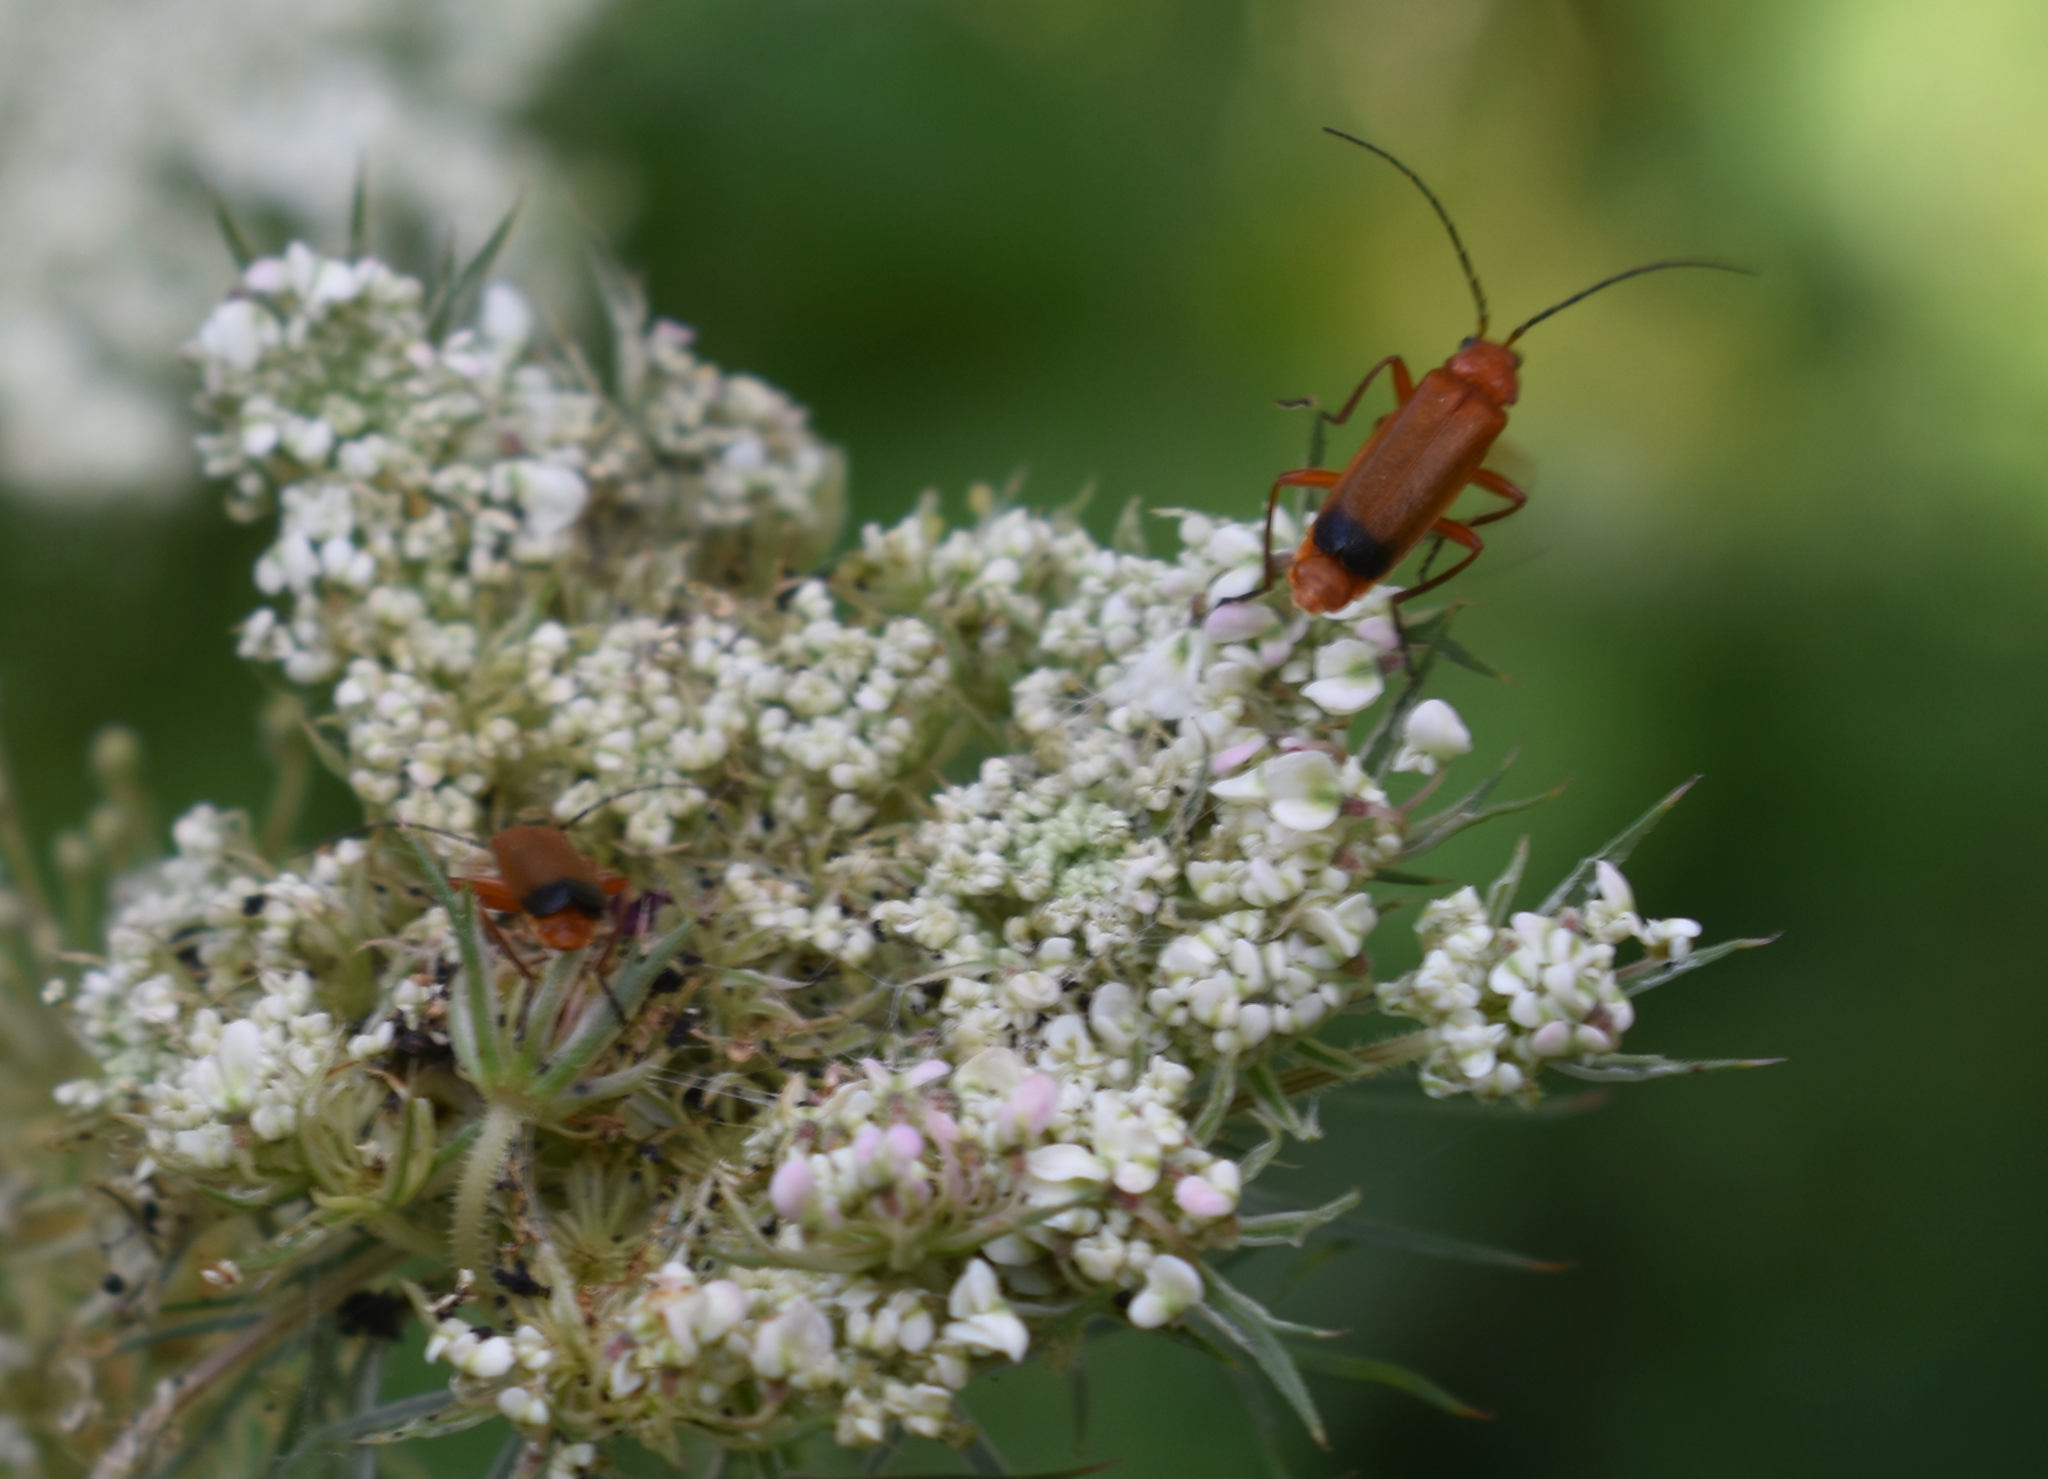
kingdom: Animalia
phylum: Arthropoda
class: Insecta
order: Coleoptera
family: Cantharidae
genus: Rhagonycha
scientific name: Rhagonycha fulva
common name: Common red soldier beetle
